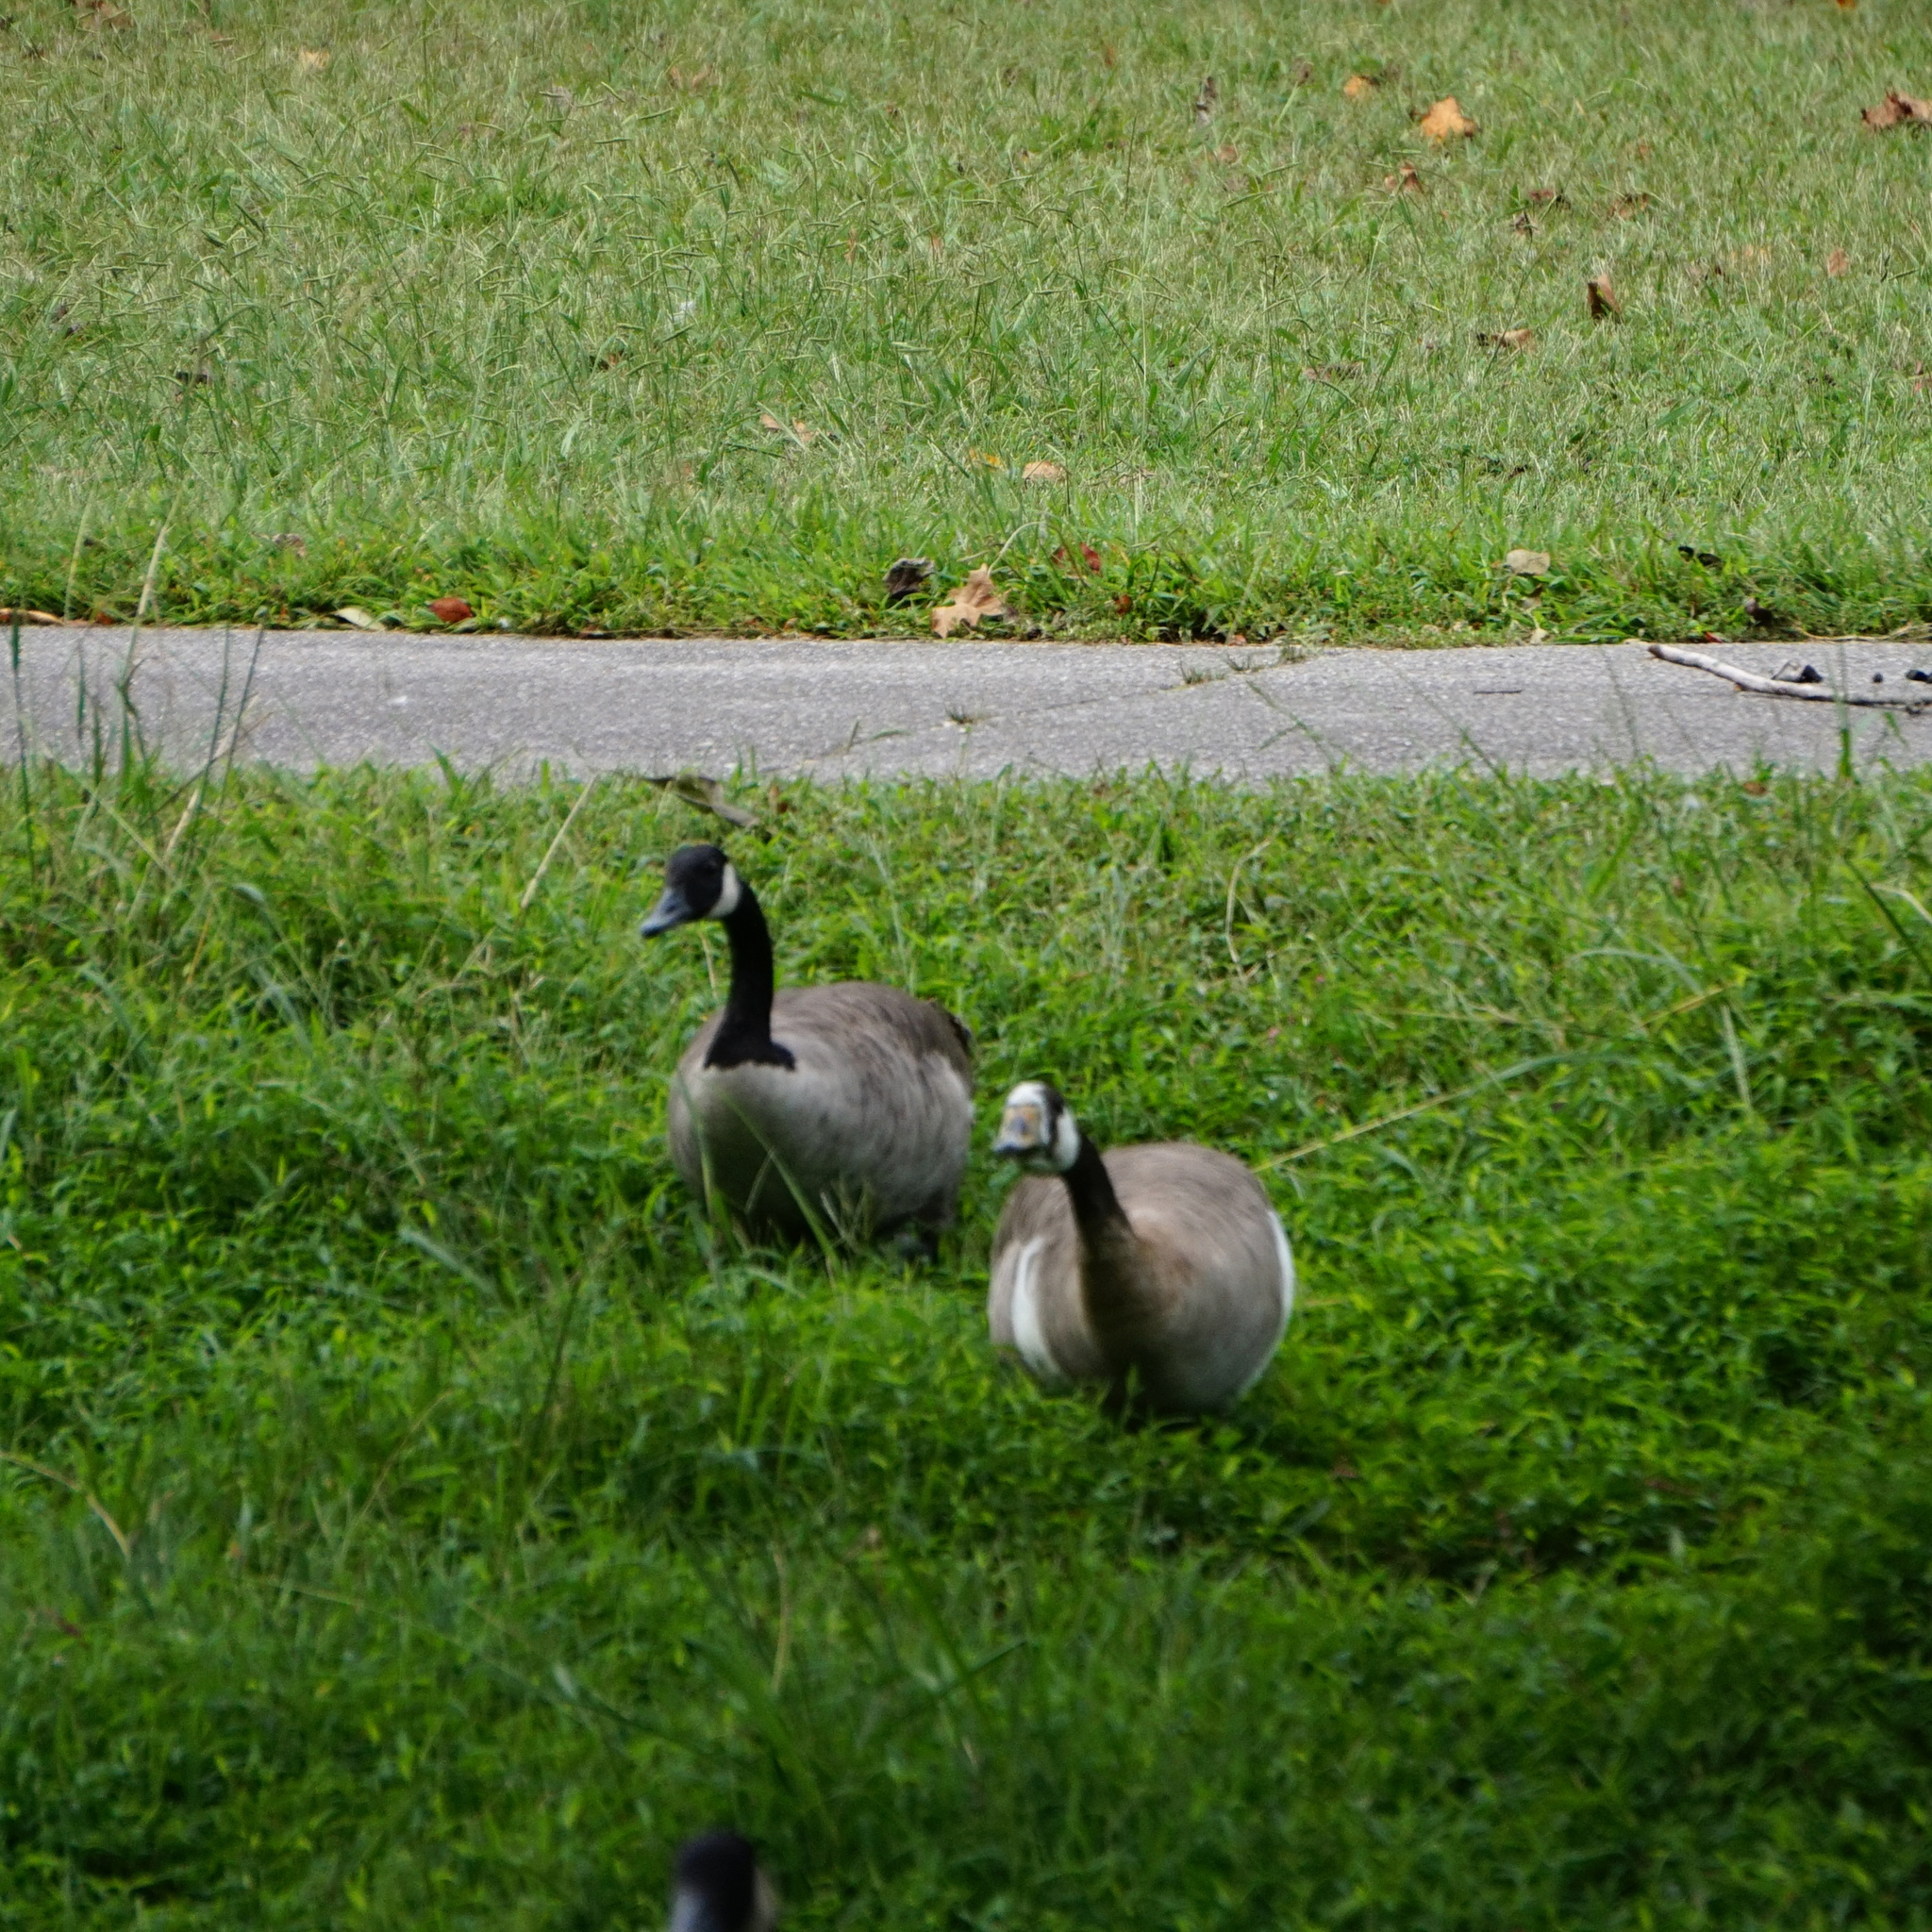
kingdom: Animalia
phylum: Chordata
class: Aves
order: Anseriformes
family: Anatidae
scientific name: Anatidae
